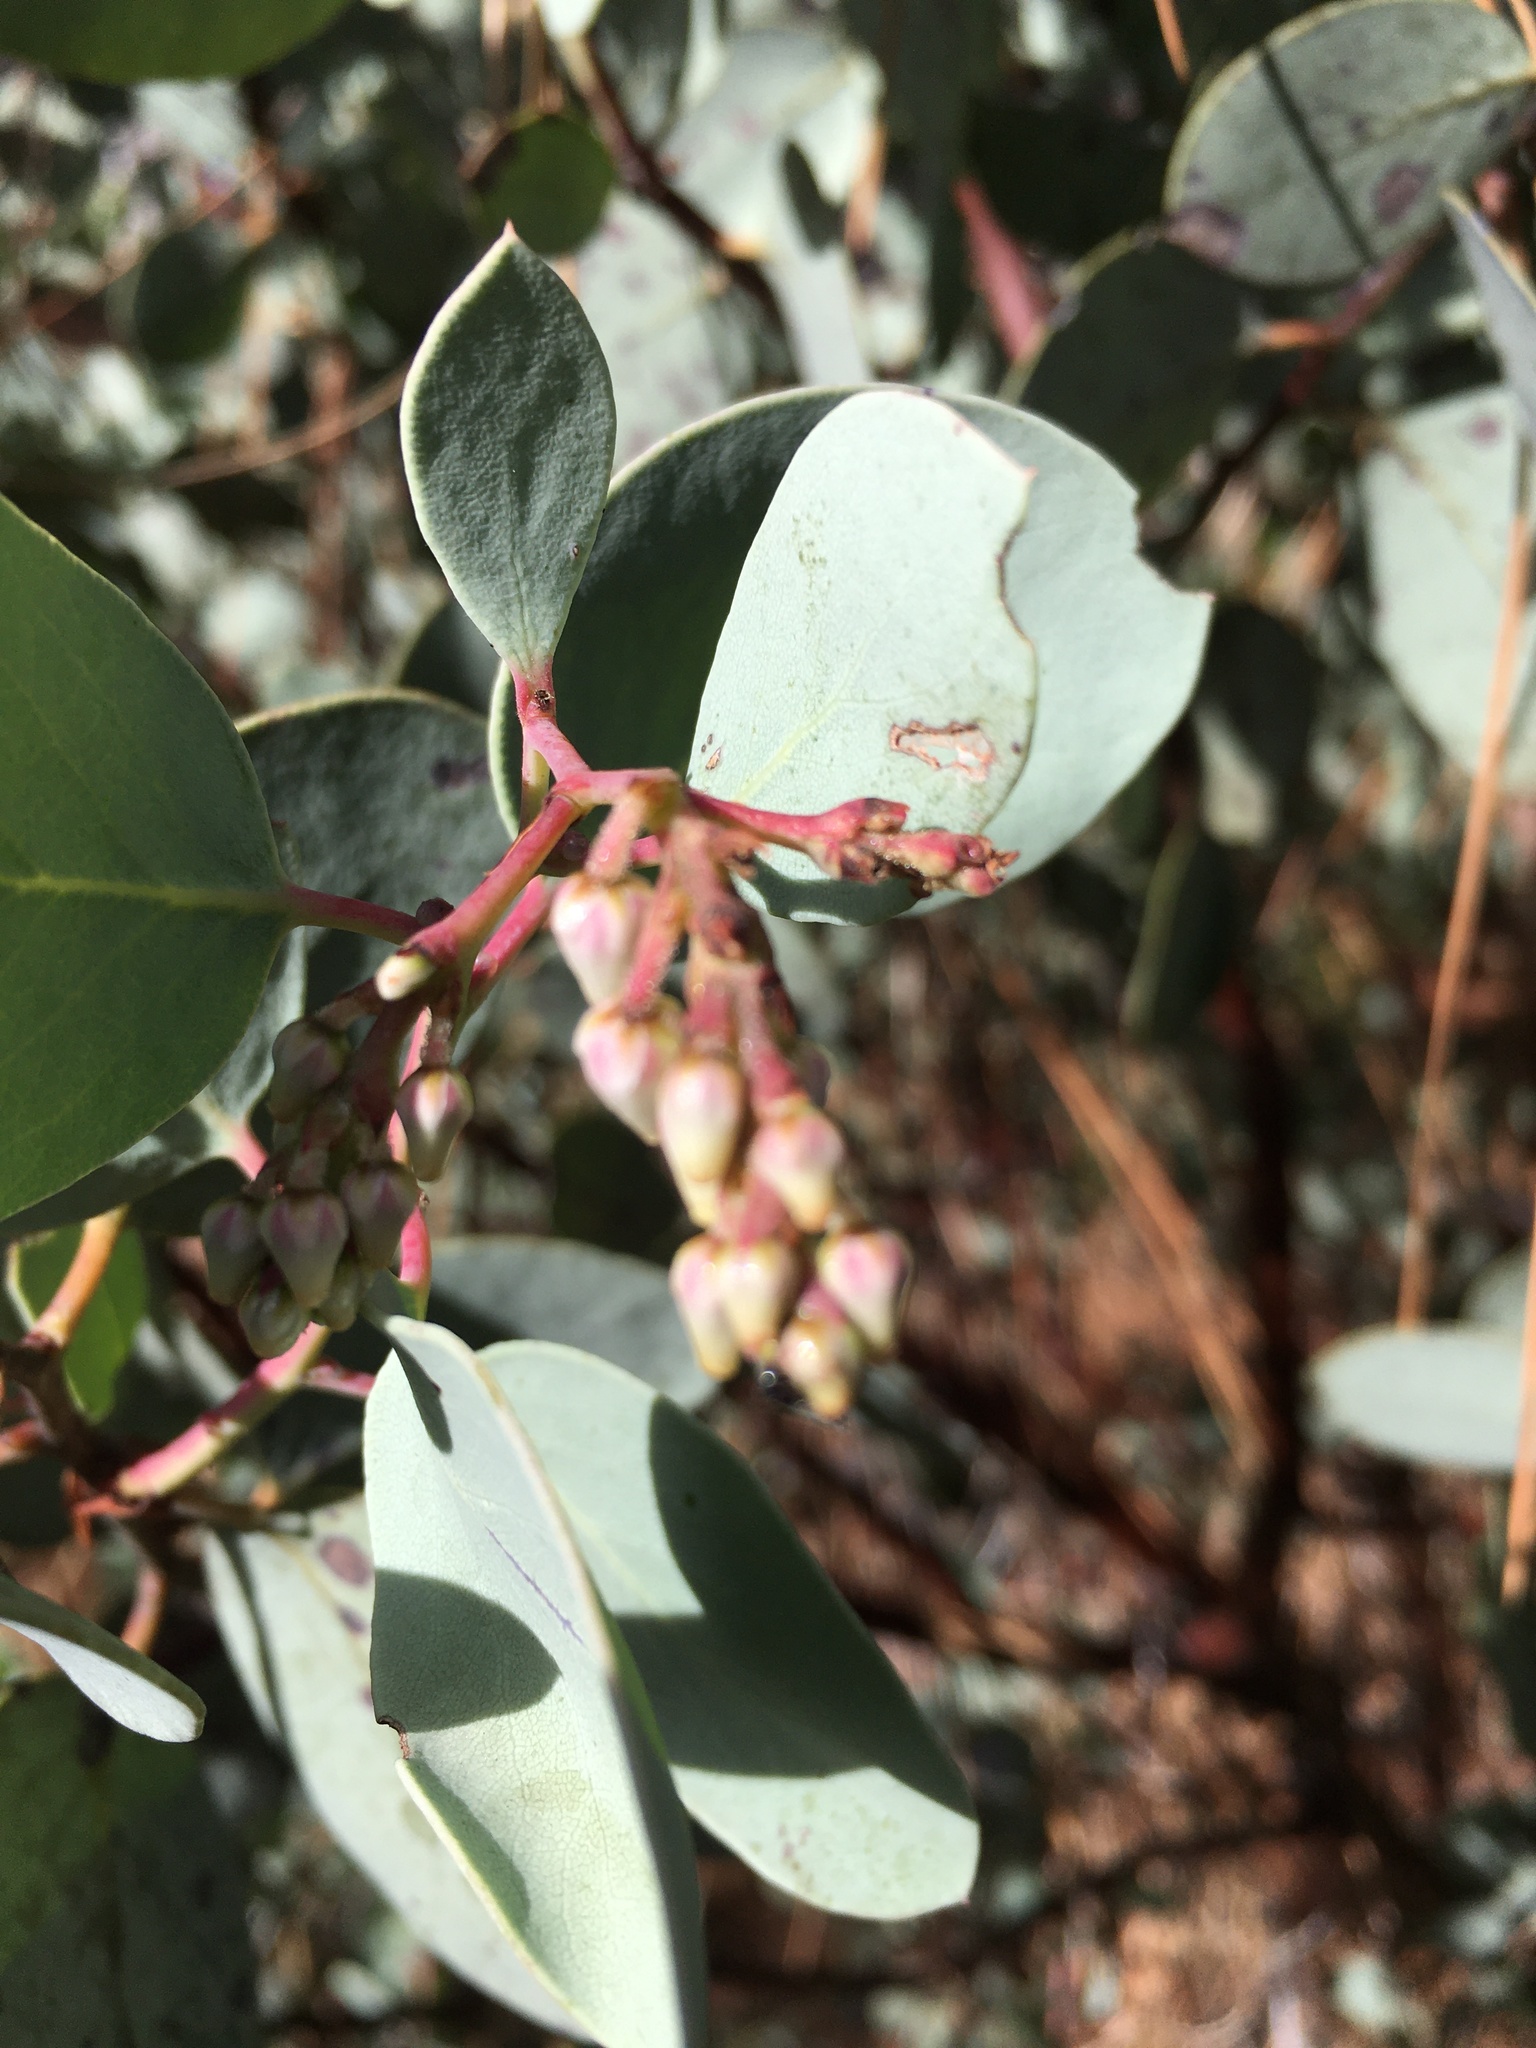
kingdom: Plantae
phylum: Tracheophyta
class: Magnoliopsida
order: Ericales
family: Ericaceae
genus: Arctostaphylos
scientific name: Arctostaphylos viscida
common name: White-leaf manzanita
